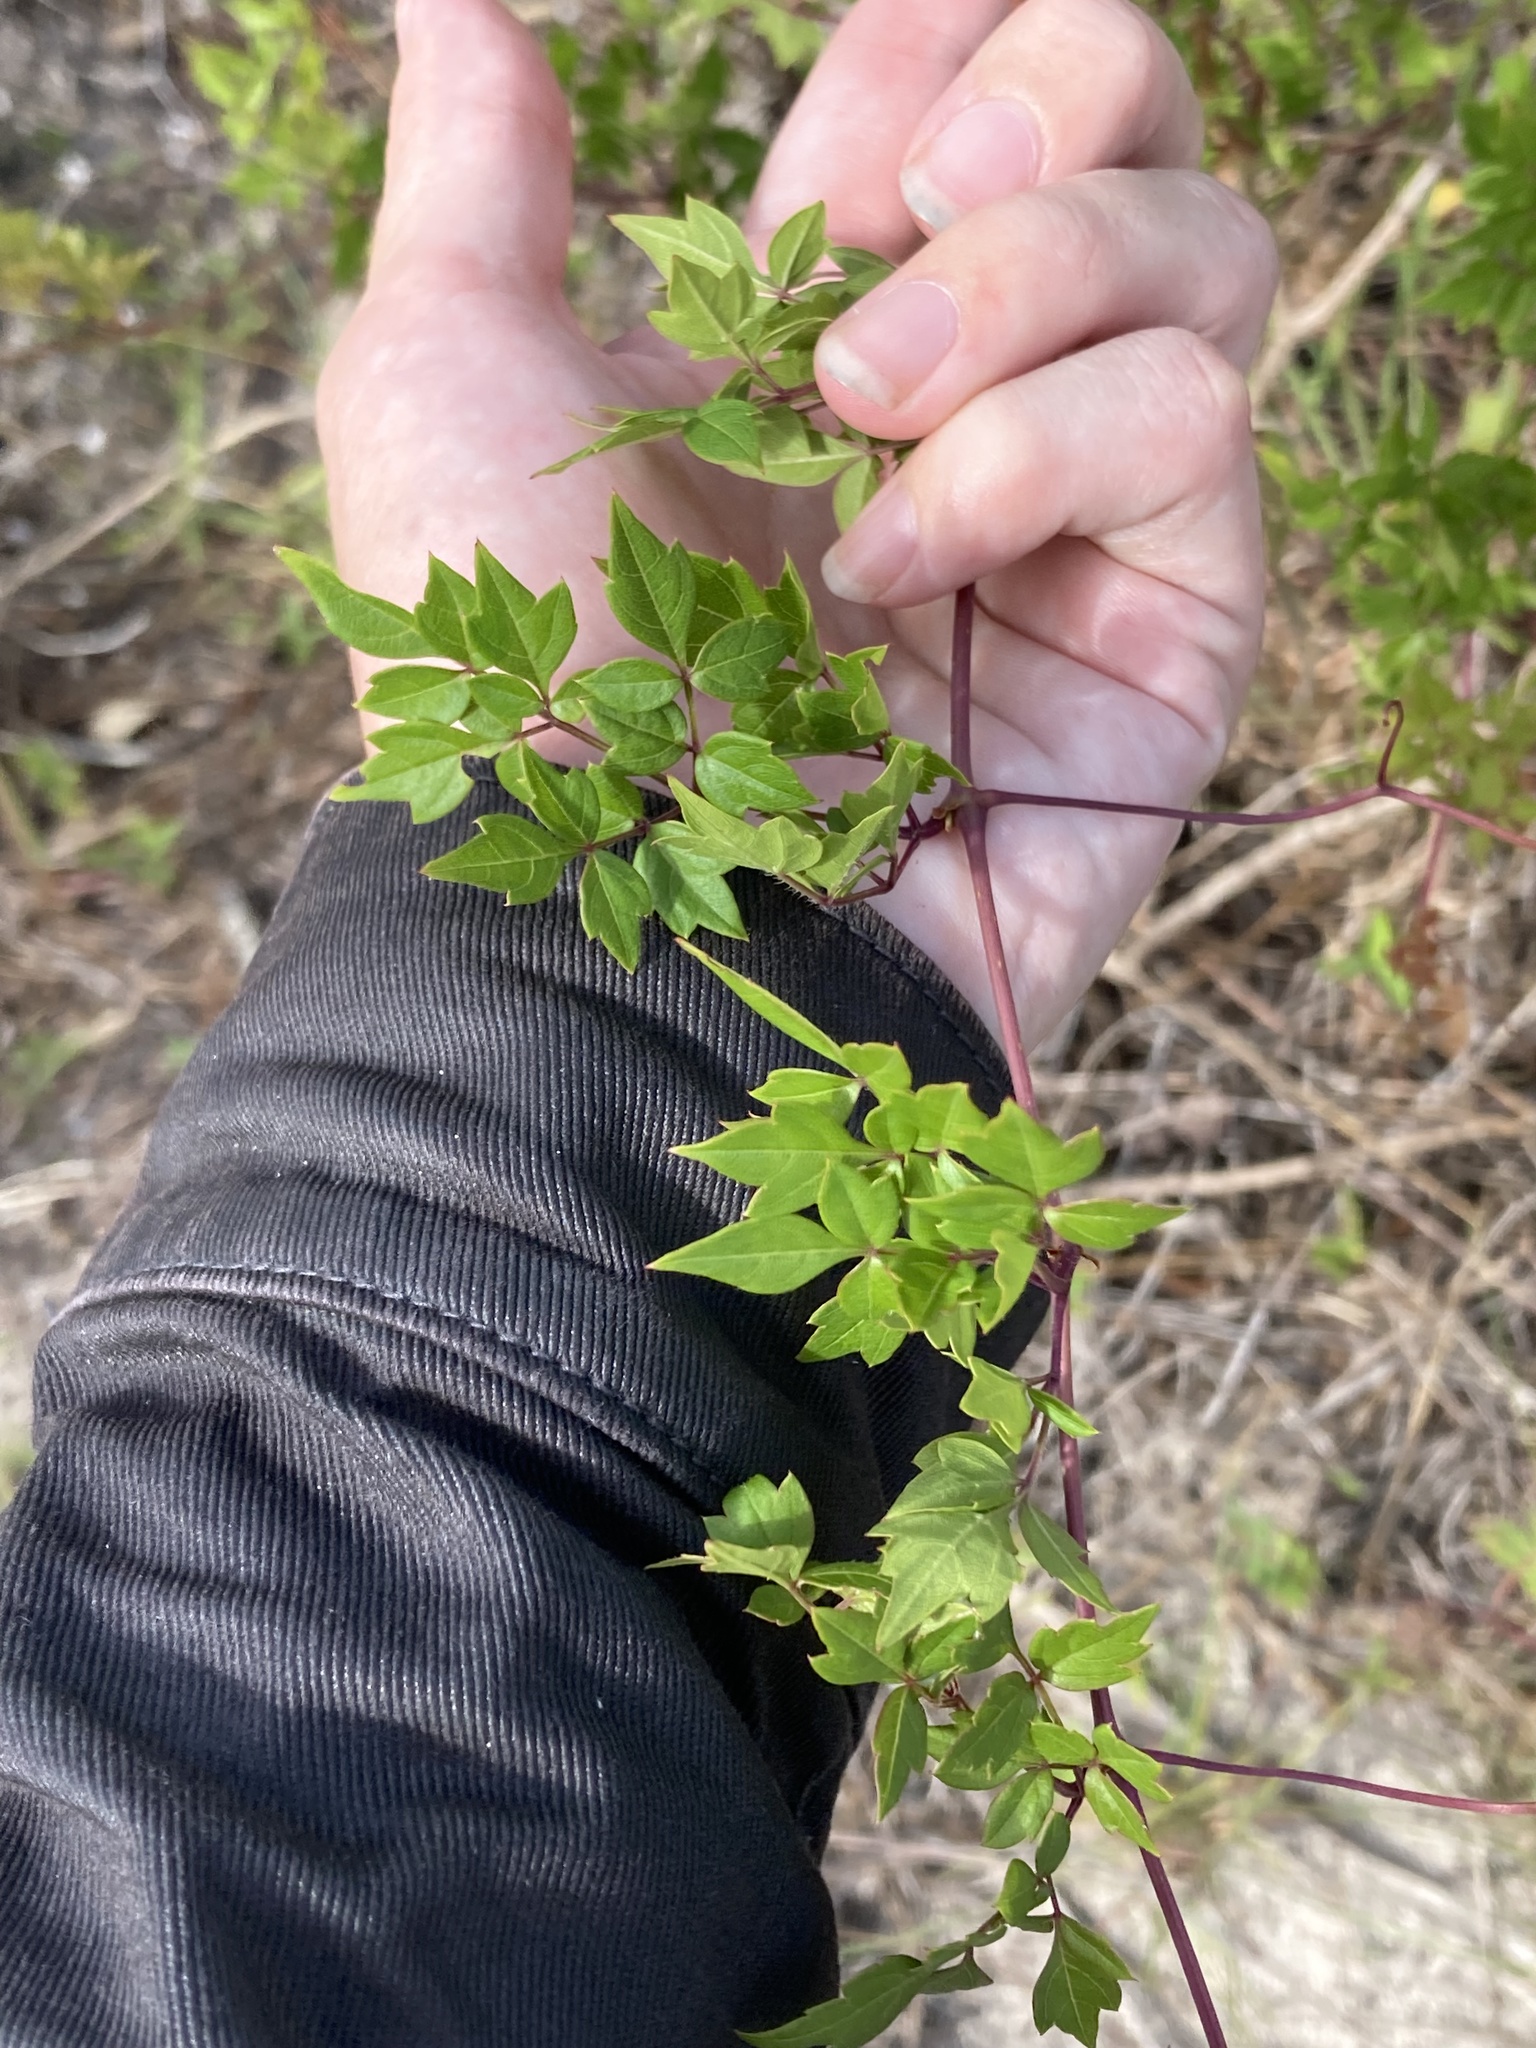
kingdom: Plantae
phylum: Tracheophyta
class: Magnoliopsida
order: Vitales
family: Vitaceae
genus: Nekemias
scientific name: Nekemias arborea
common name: Peppervine
